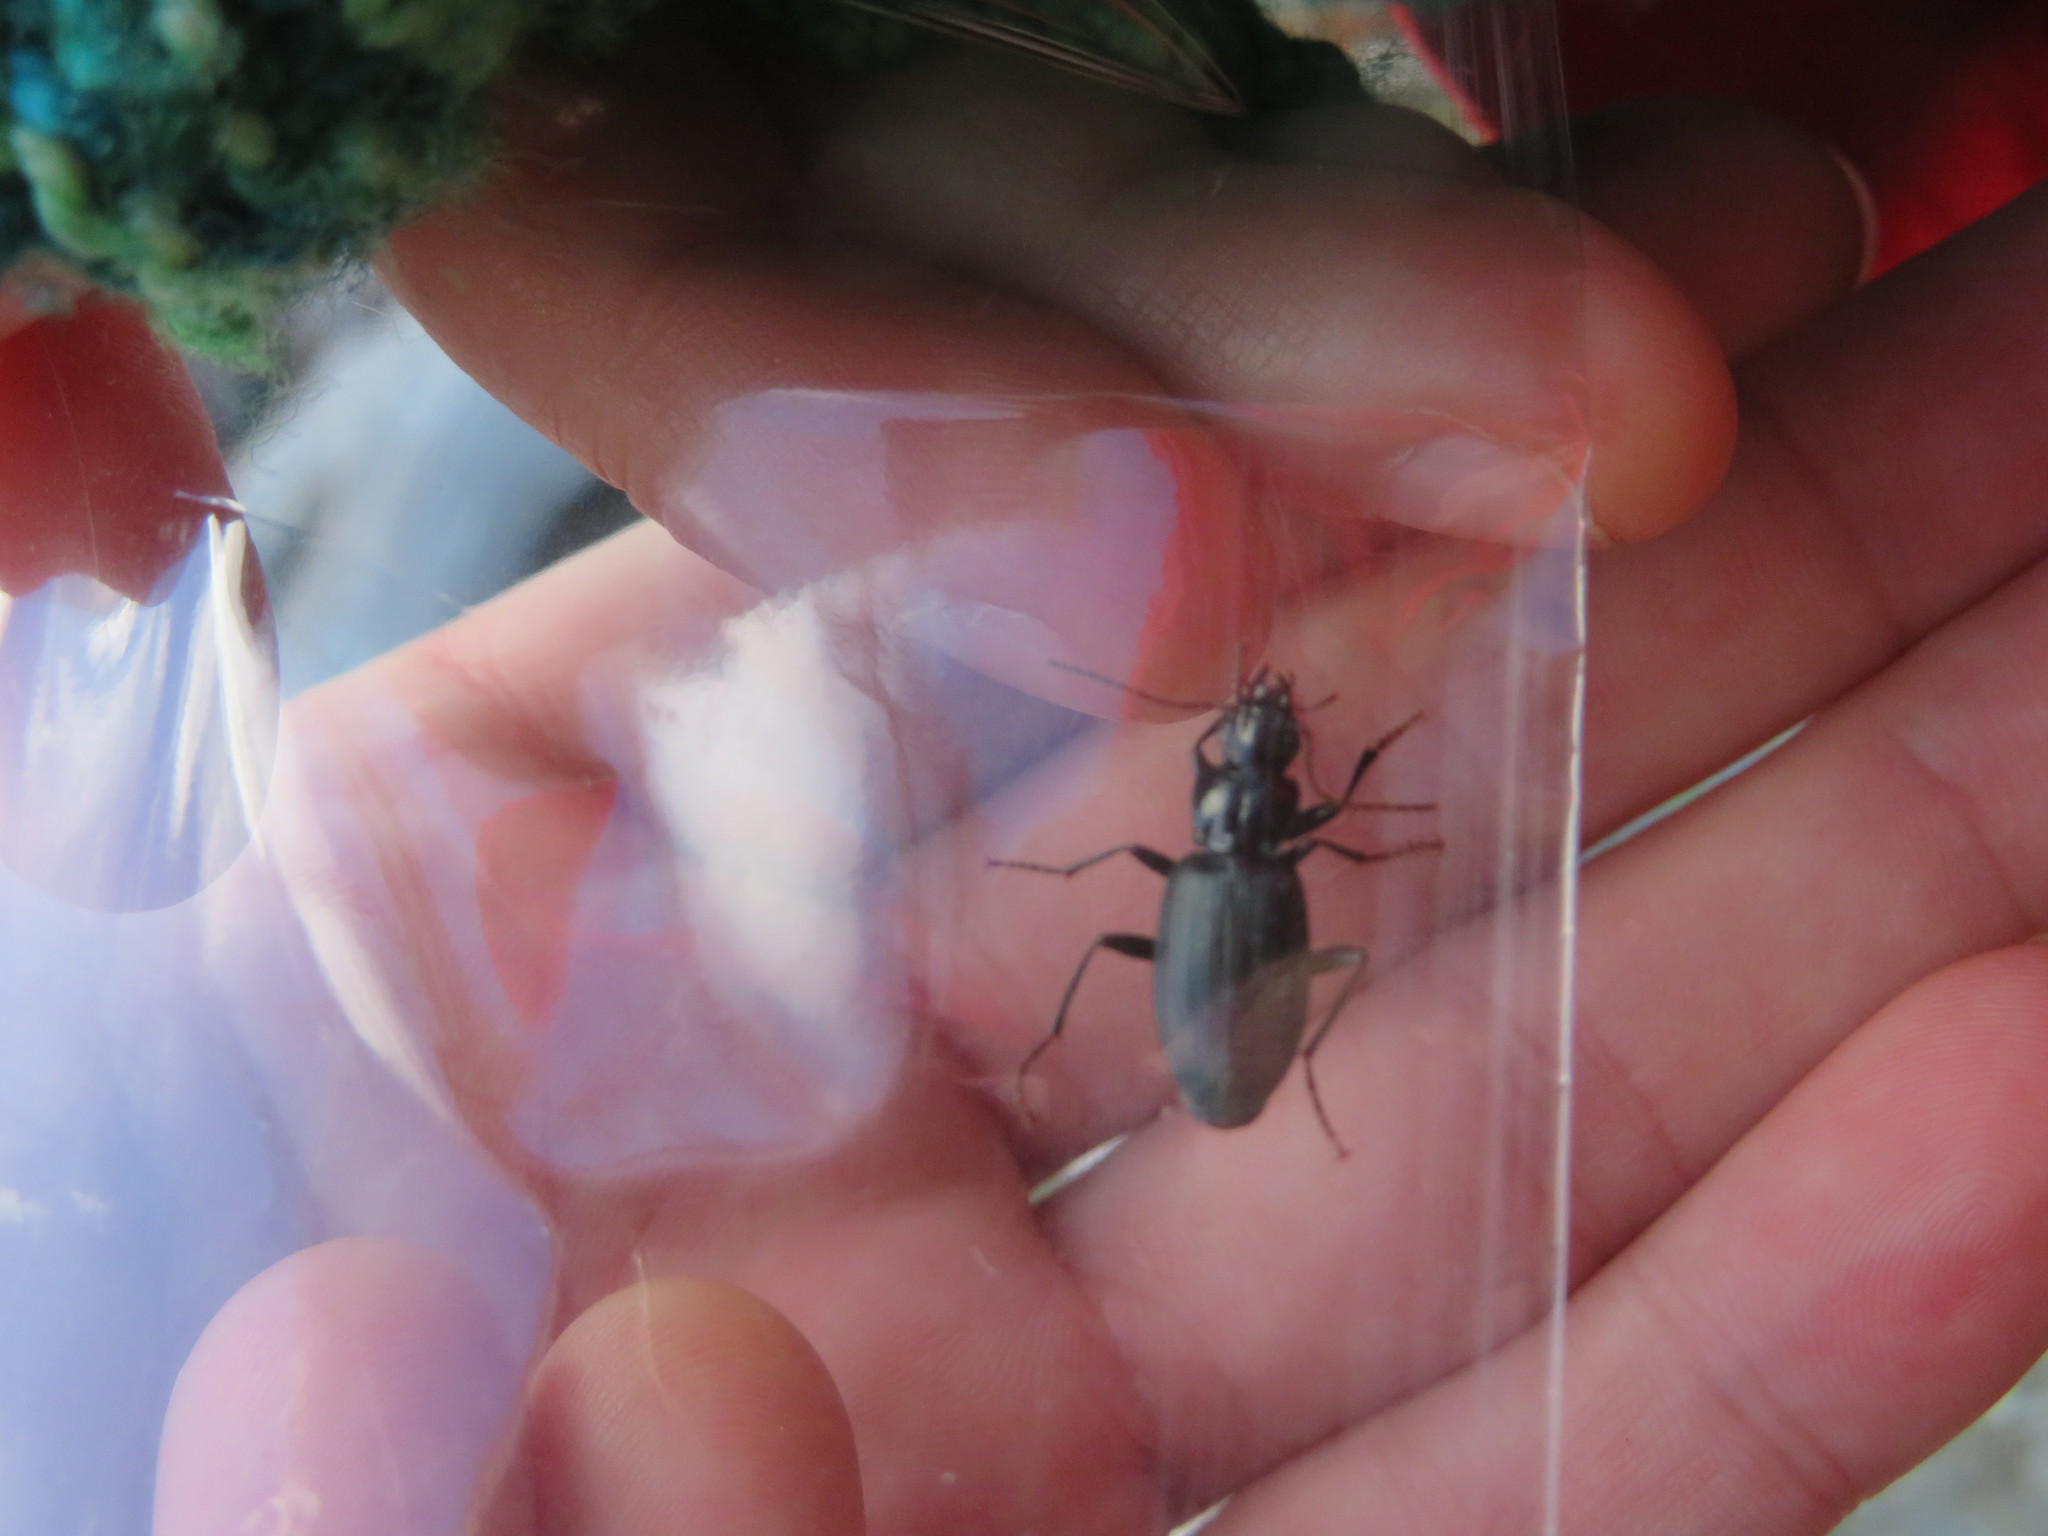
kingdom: Animalia
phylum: Arthropoda
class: Insecta
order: Coleoptera
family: Carabidae
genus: Laemostenus
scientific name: Laemostenus complanatus
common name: Cosmopolitan ground beetle
